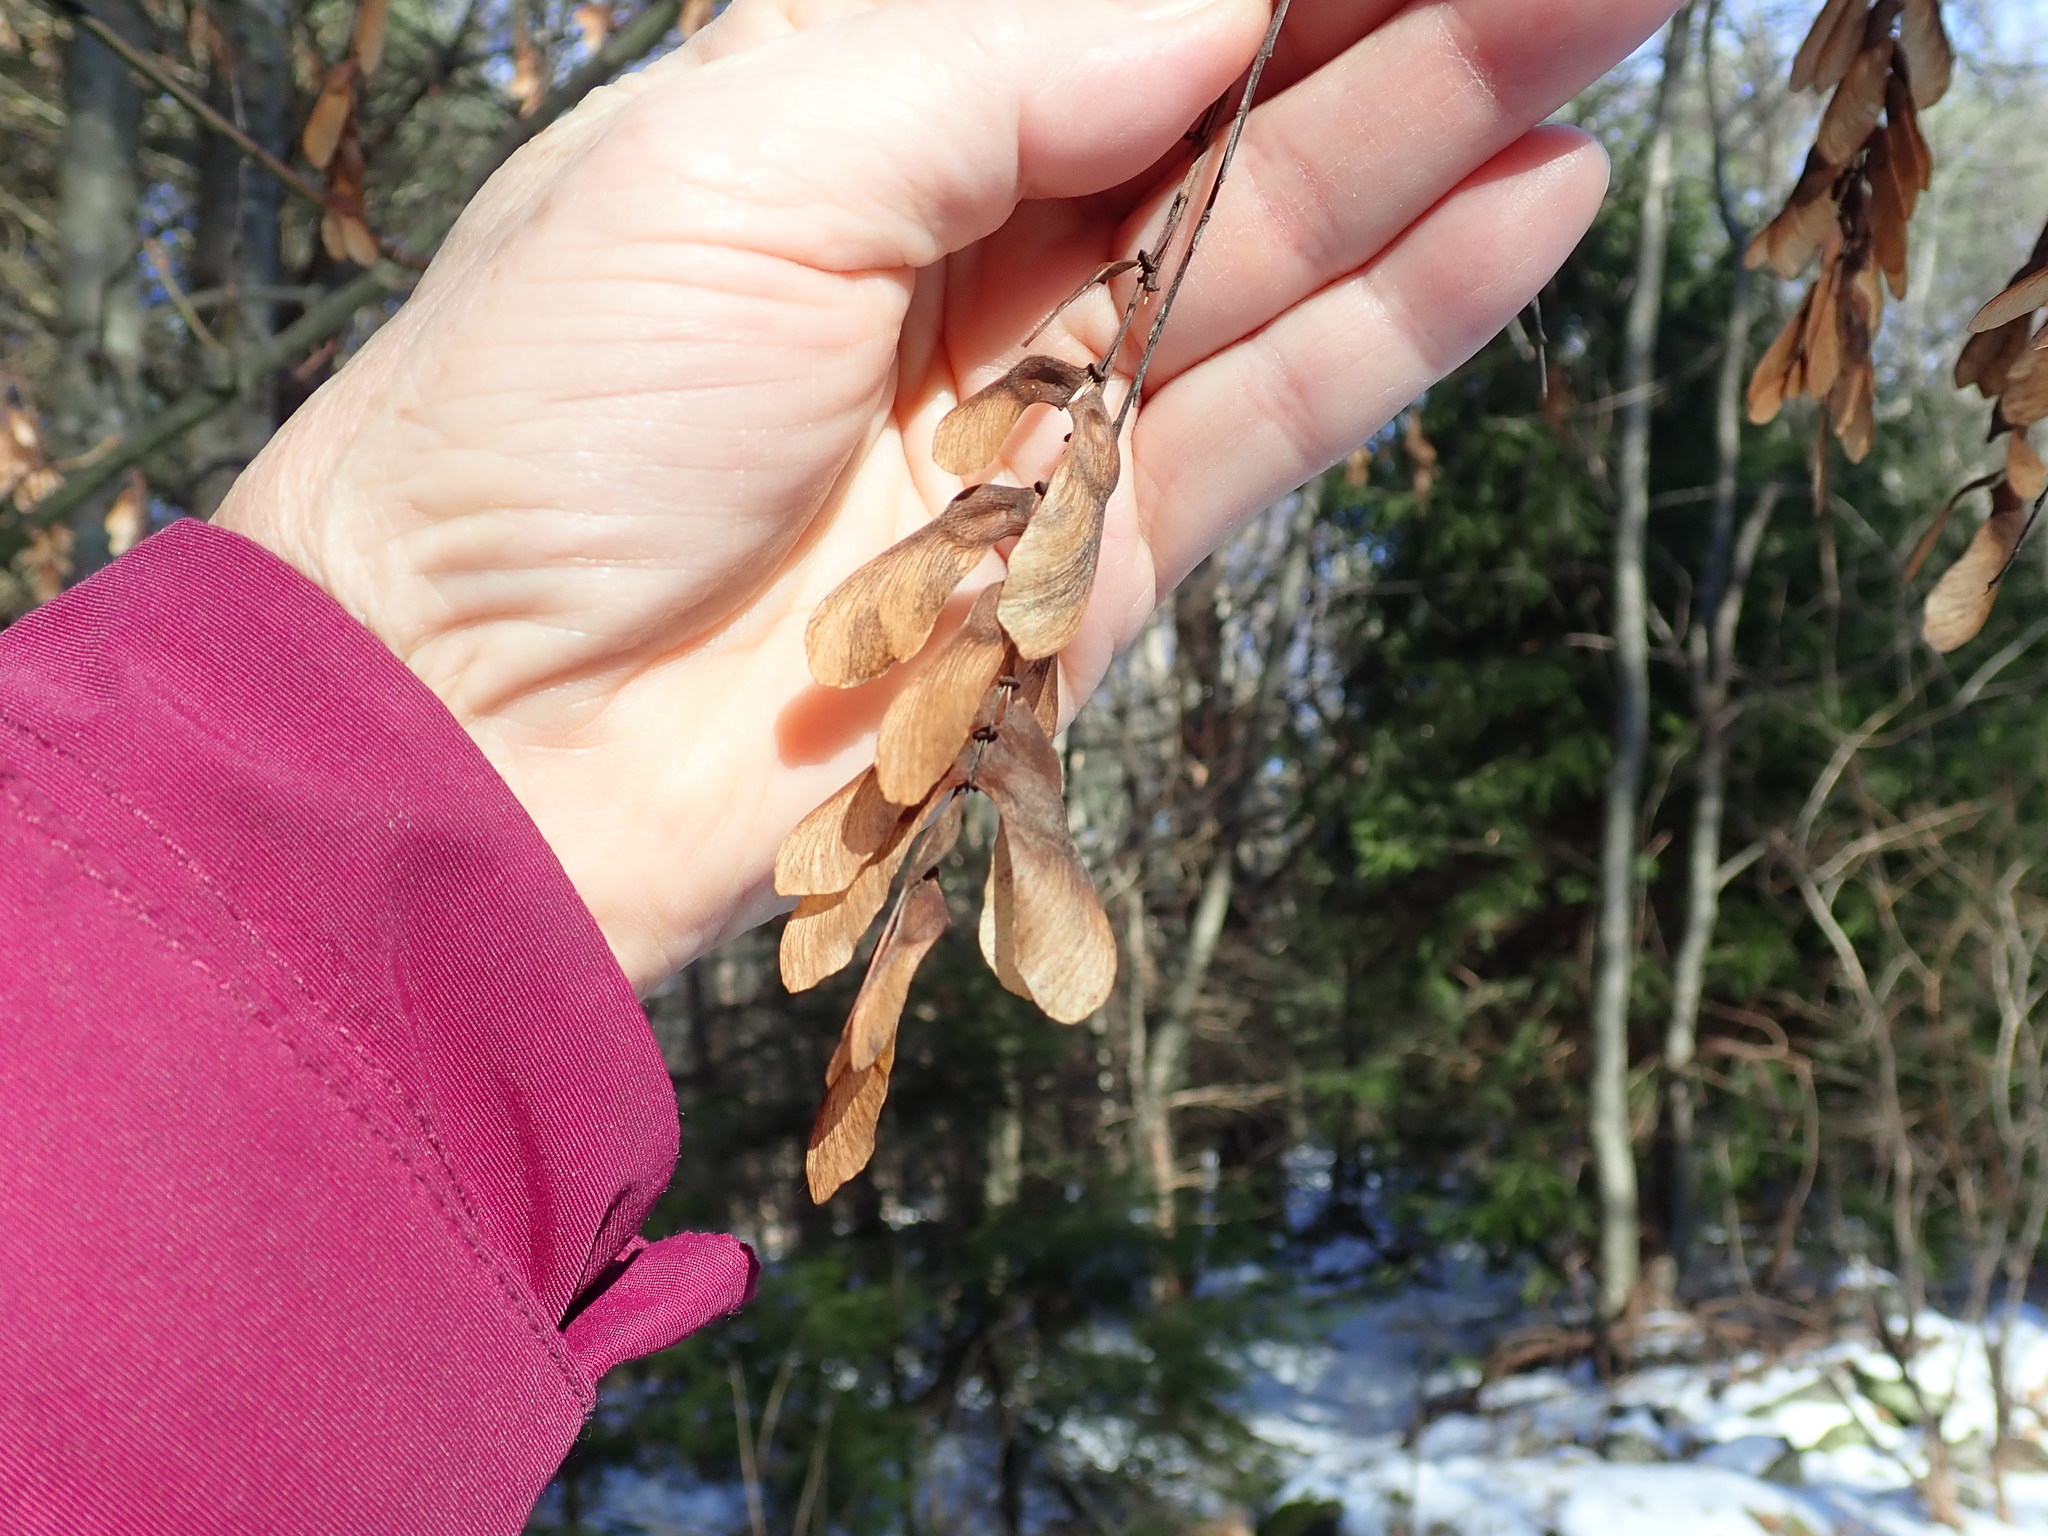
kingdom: Plantae
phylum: Tracheophyta
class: Magnoliopsida
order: Sapindales
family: Sapindaceae
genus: Acer
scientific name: Acer pensylvanicum
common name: Moosewood
